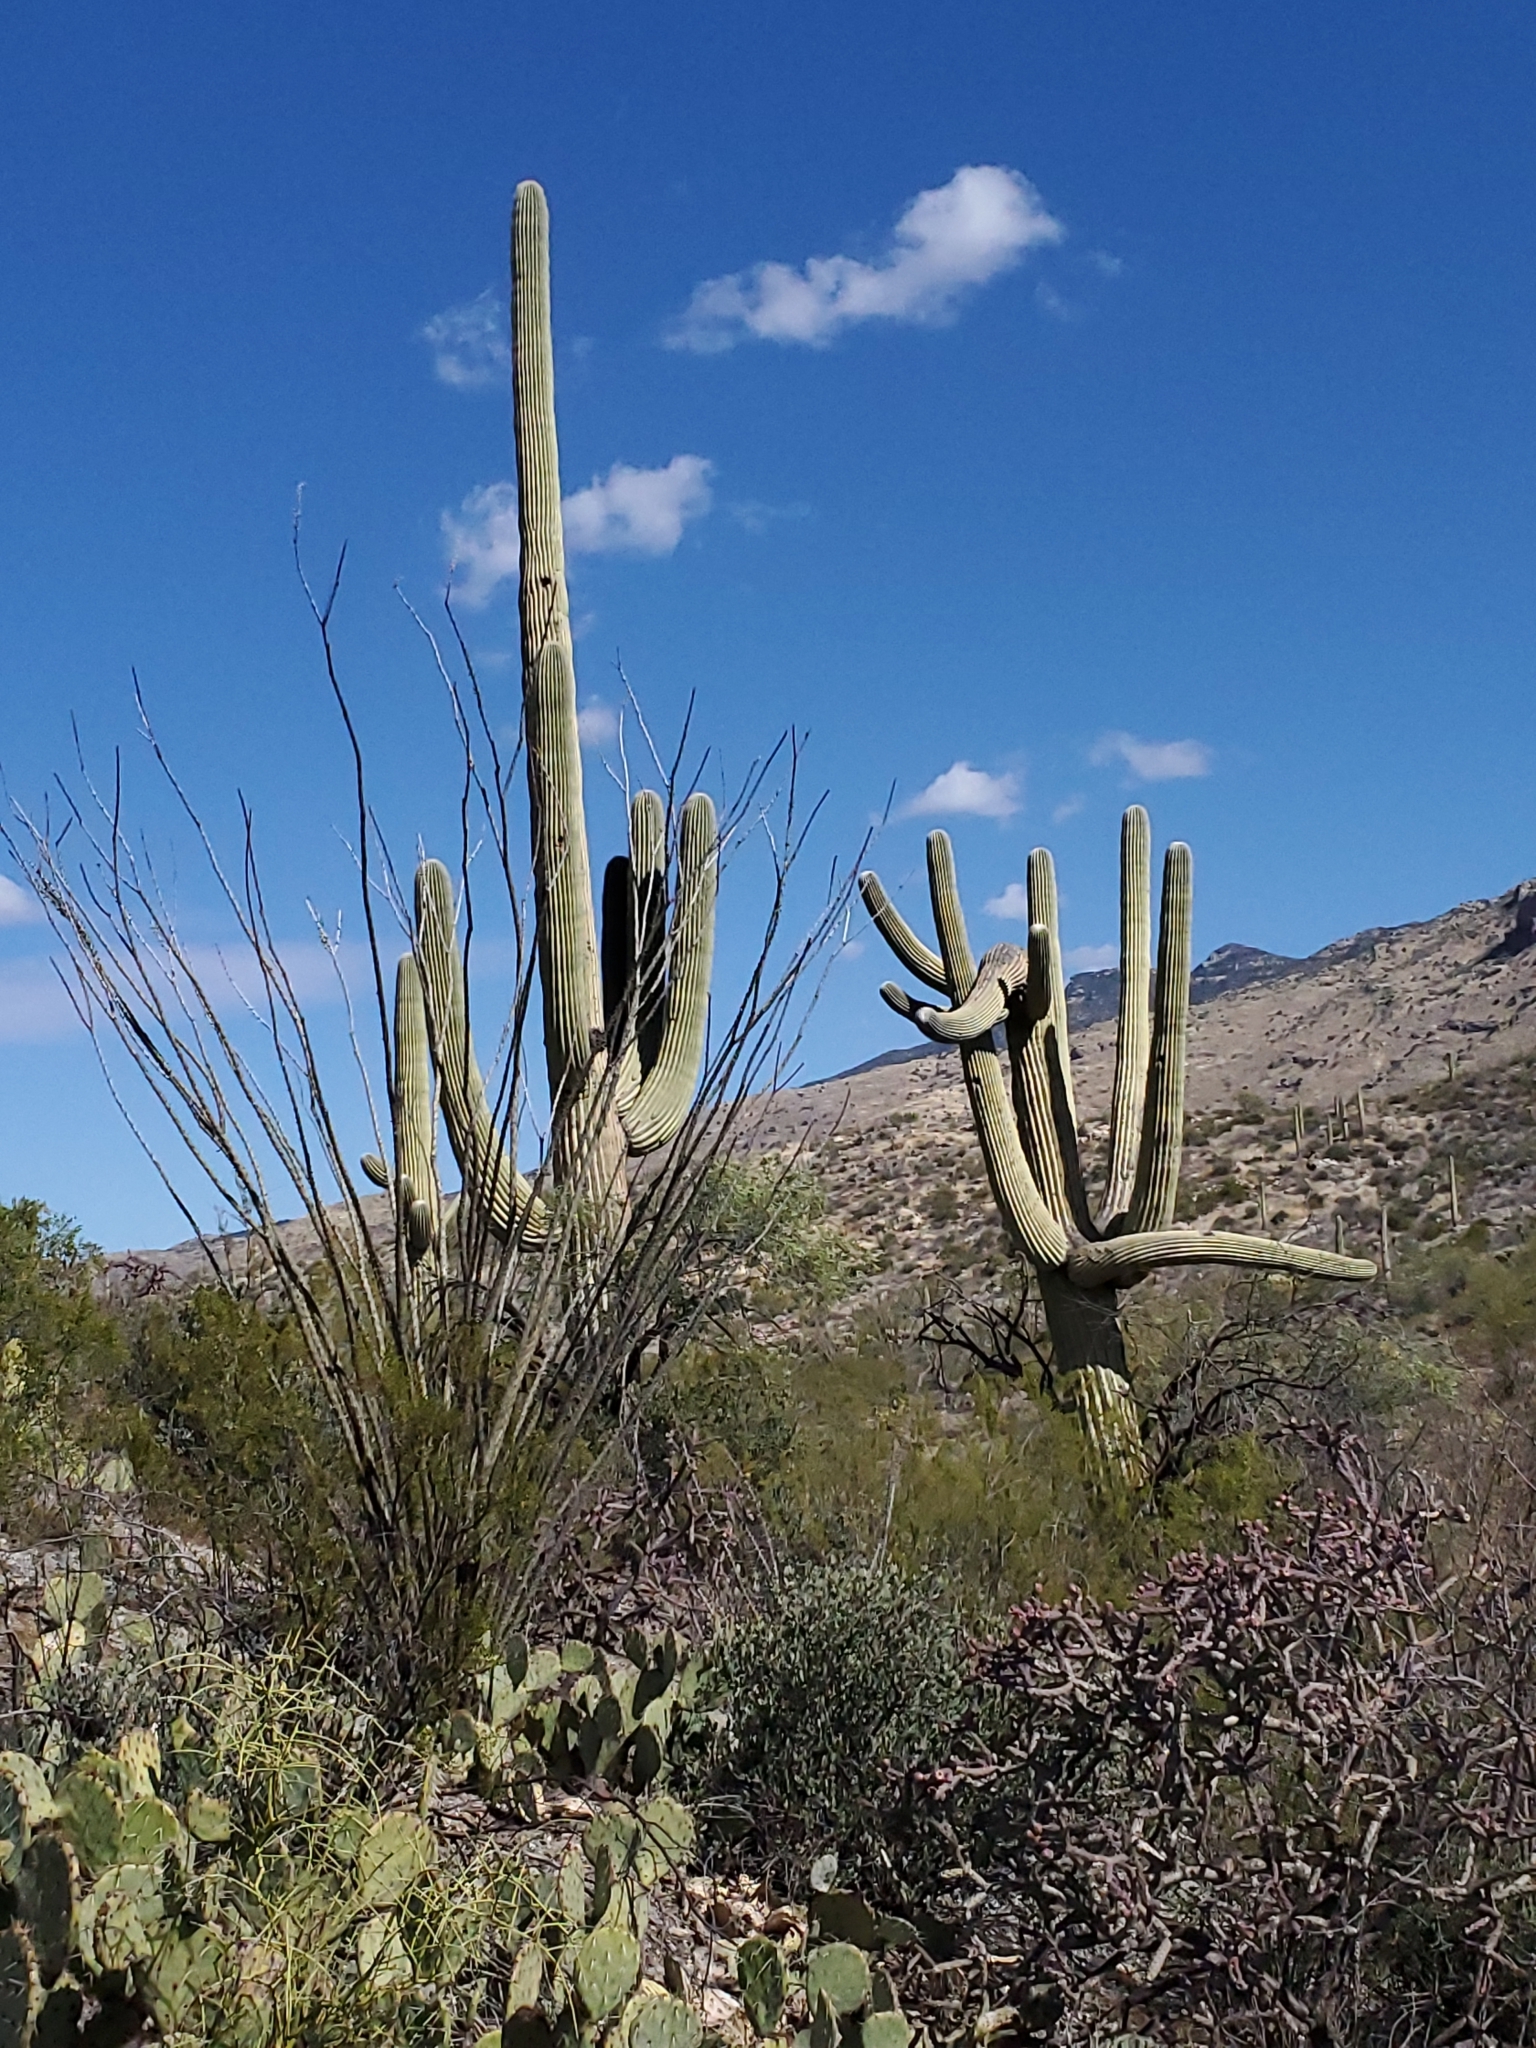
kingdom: Plantae
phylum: Tracheophyta
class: Magnoliopsida
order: Caryophyllales
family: Cactaceae
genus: Carnegiea
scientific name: Carnegiea gigantea
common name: Saguaro
